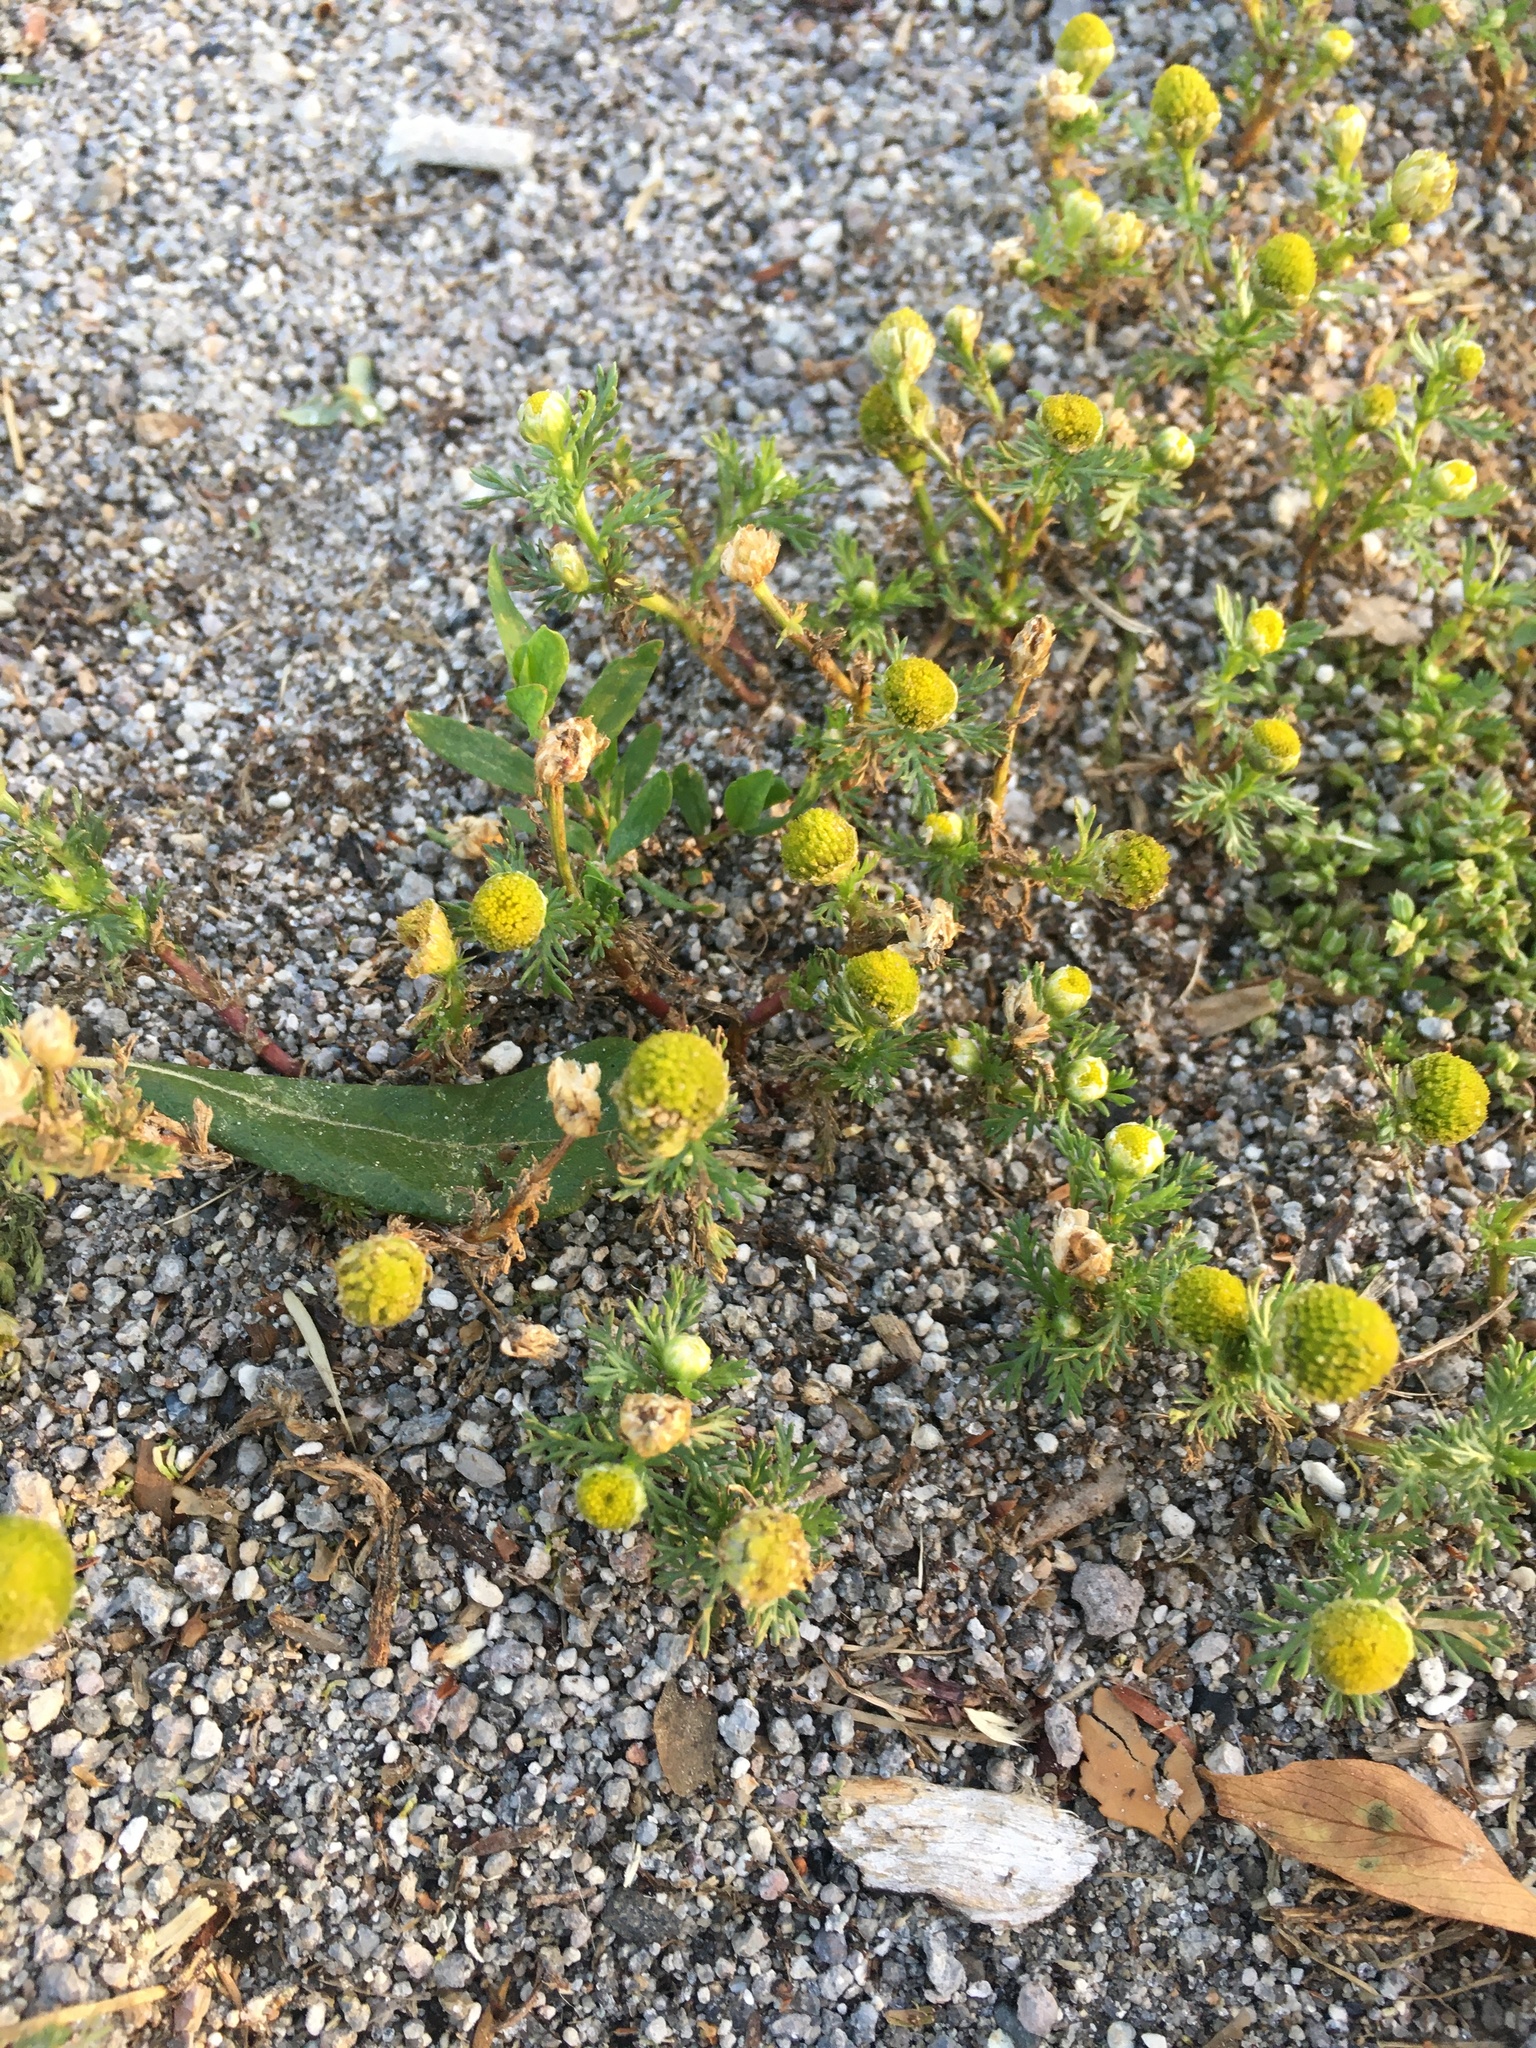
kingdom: Plantae
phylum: Tracheophyta
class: Magnoliopsida
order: Asterales
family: Asteraceae
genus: Matricaria
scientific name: Matricaria discoidea
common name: Disc mayweed
